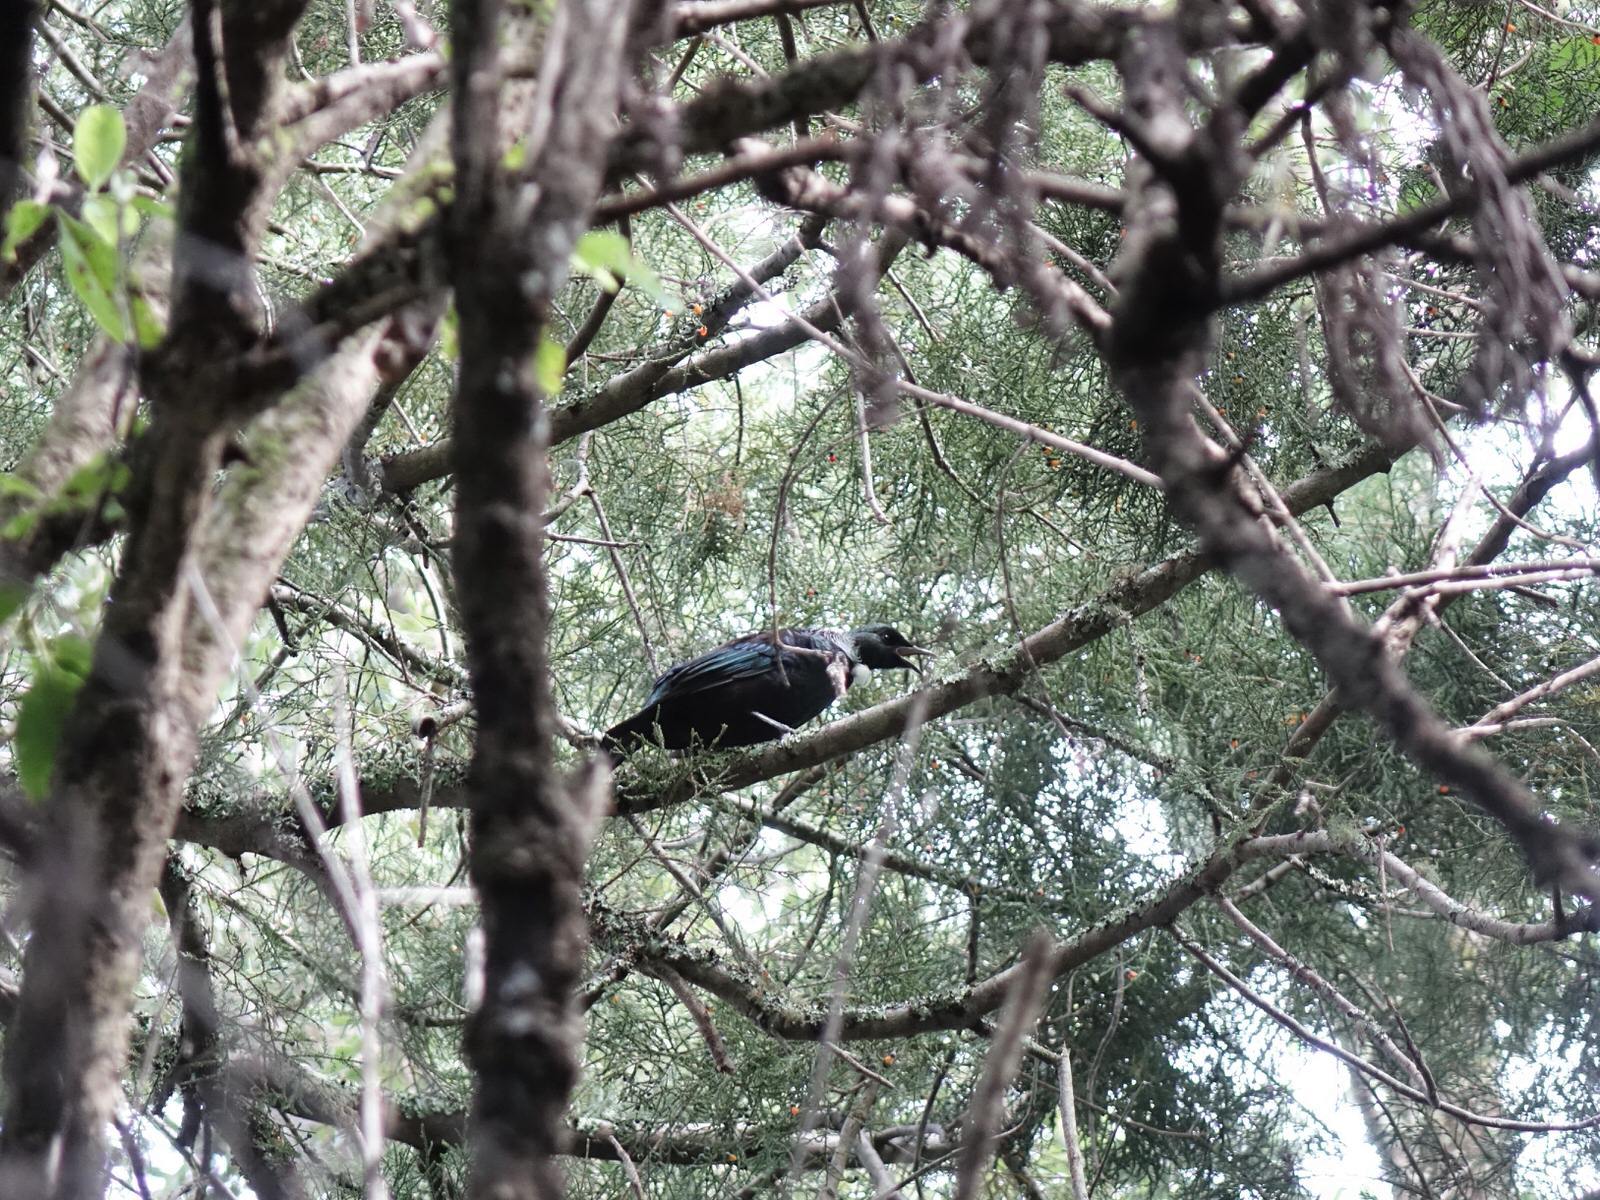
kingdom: Animalia
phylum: Chordata
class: Aves
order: Passeriformes
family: Meliphagidae
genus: Prosthemadera
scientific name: Prosthemadera novaeseelandiae
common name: Tui
